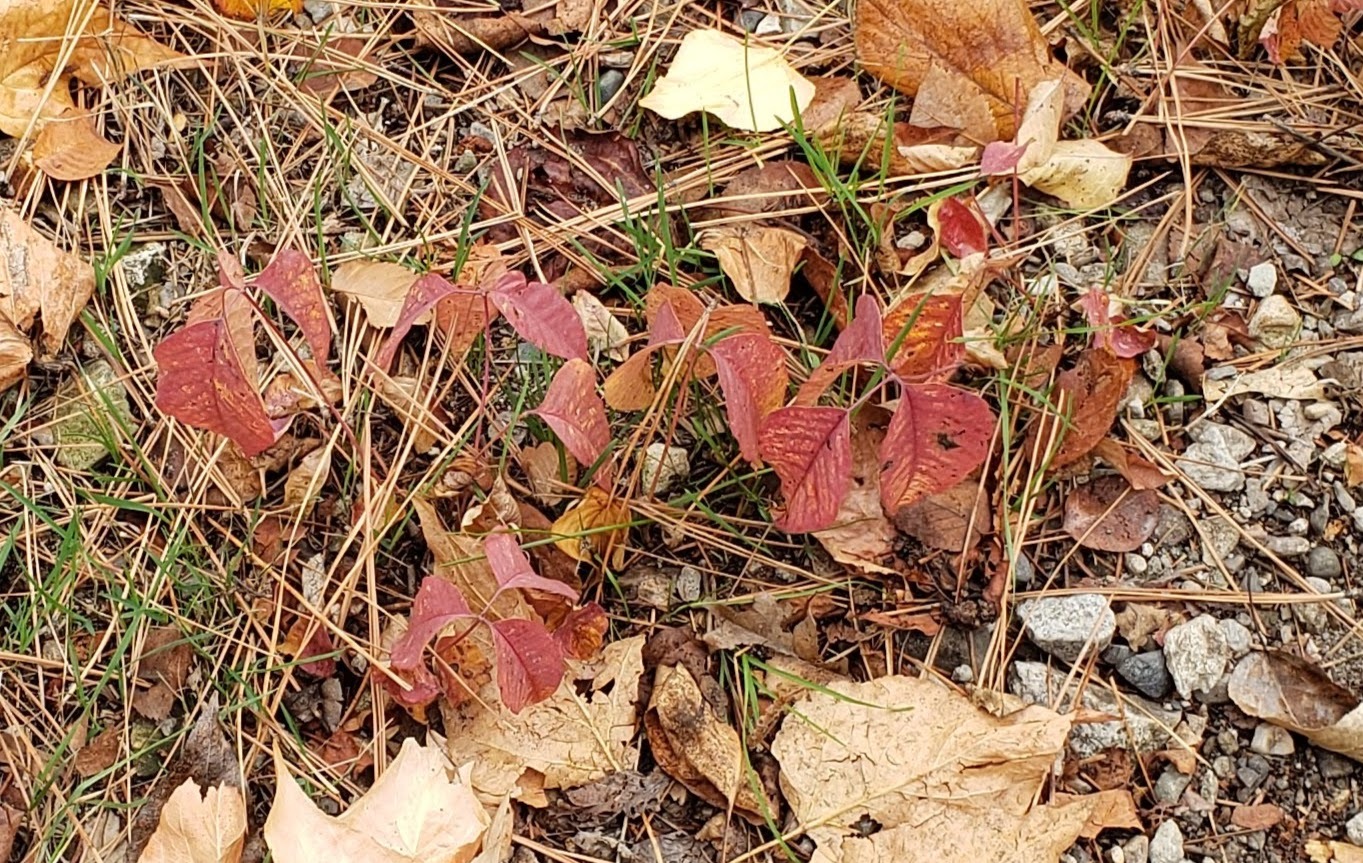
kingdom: Plantae
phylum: Tracheophyta
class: Magnoliopsida
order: Sapindales
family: Anacardiaceae
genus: Toxicodendron
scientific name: Toxicodendron rydbergii
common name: Rydberg's poison-ivy
